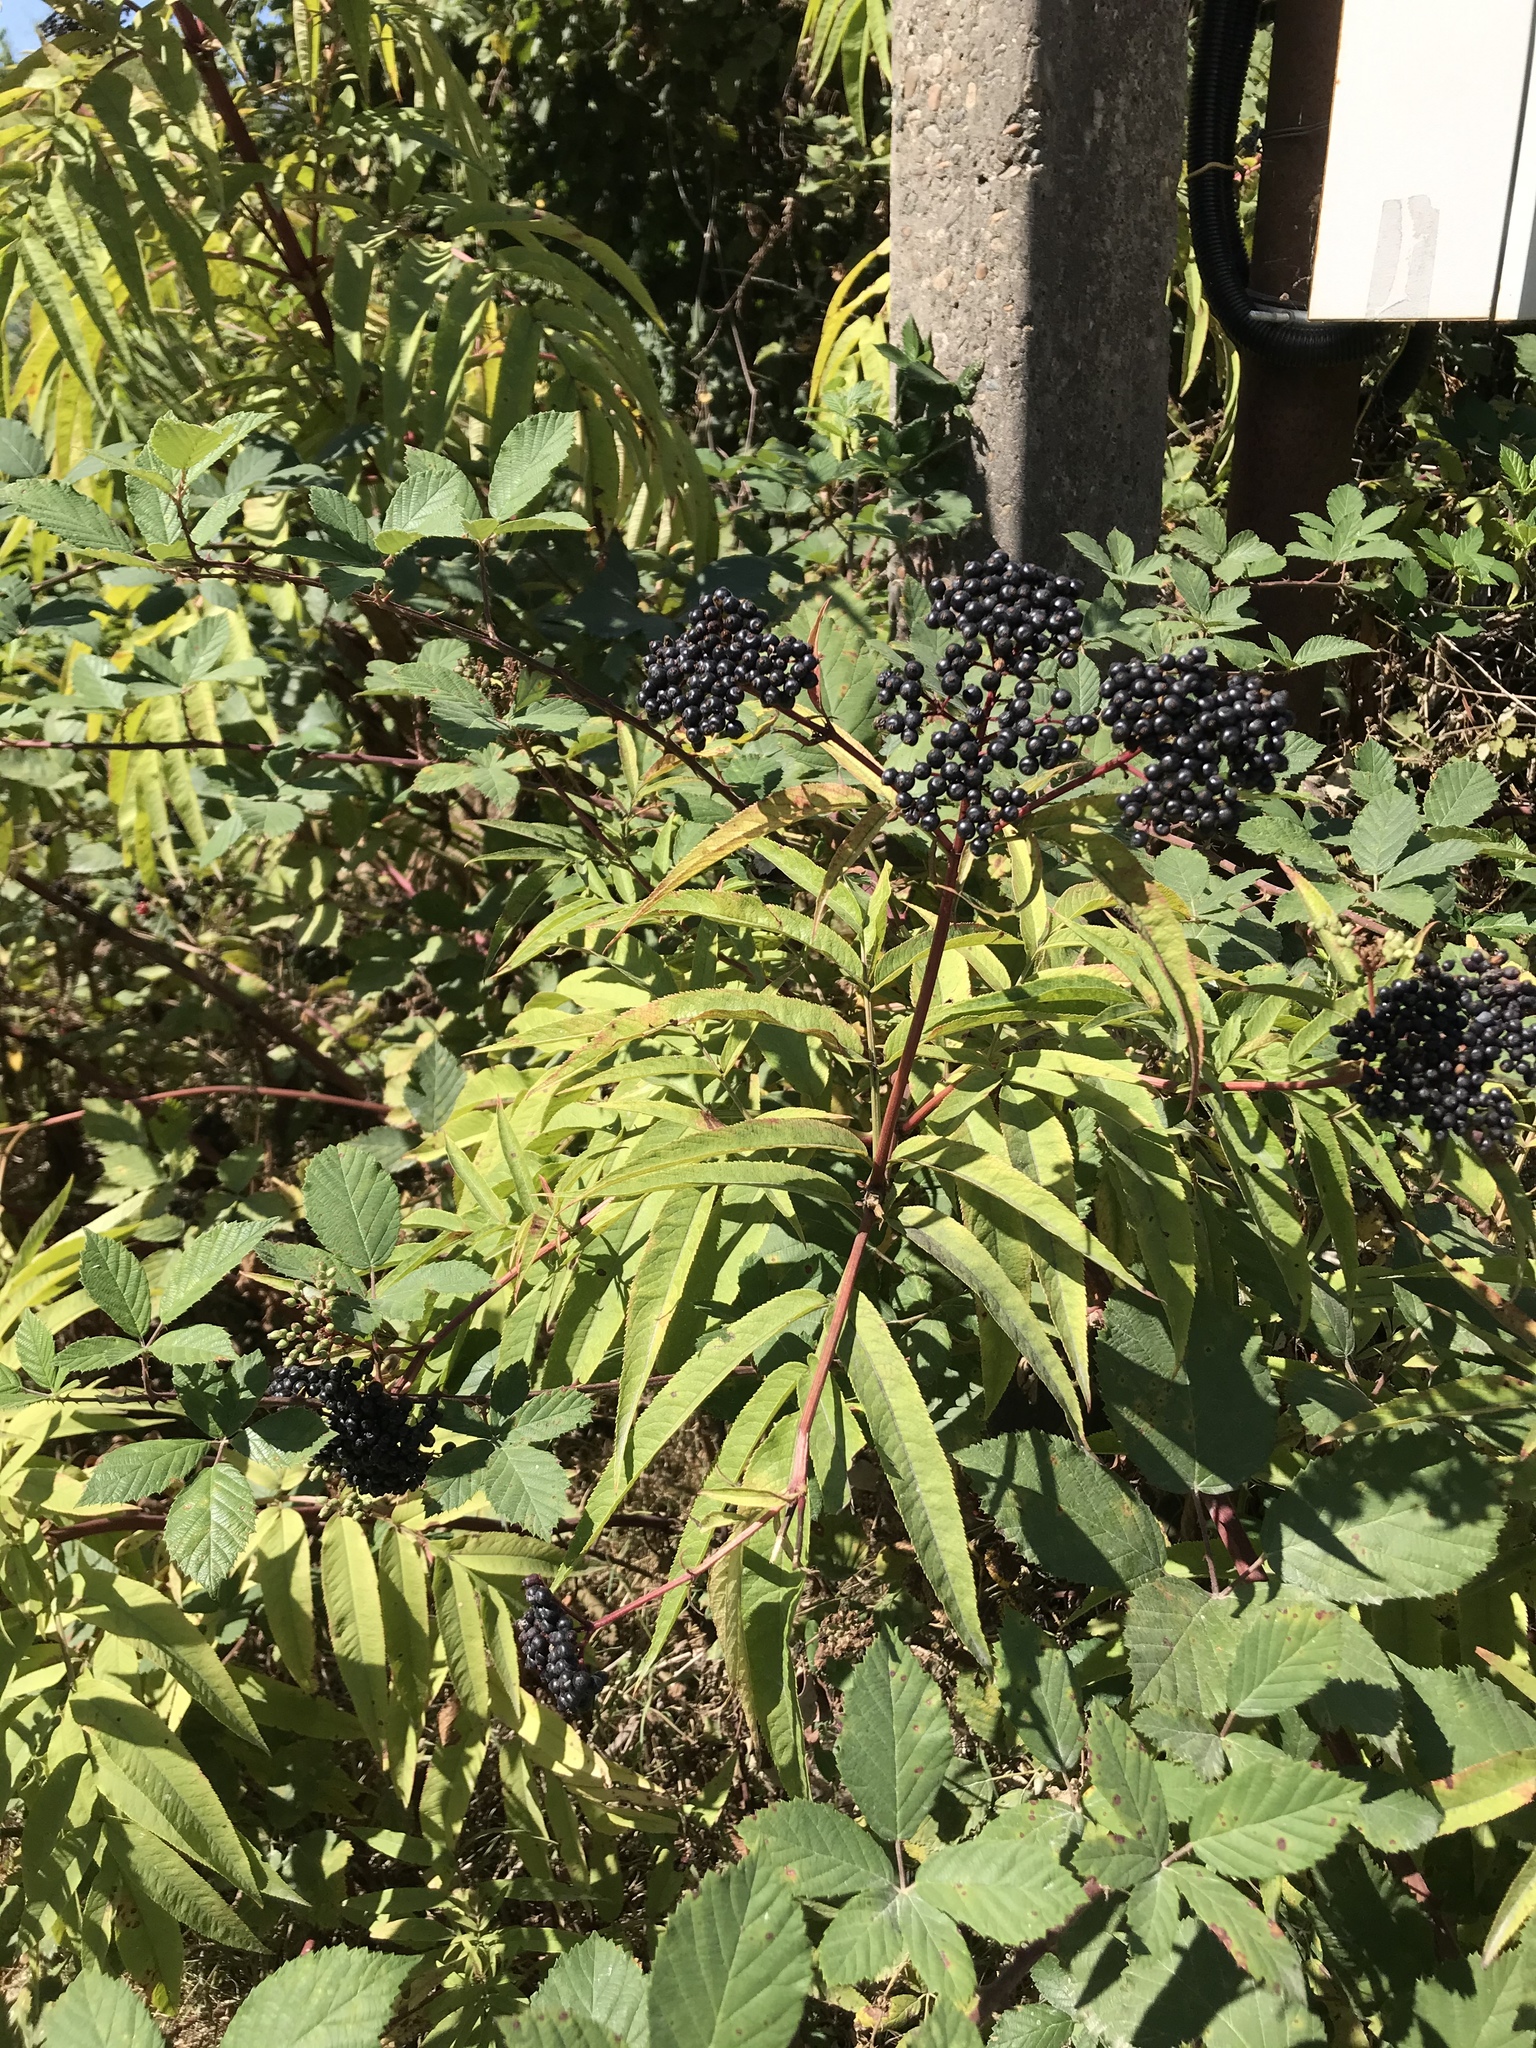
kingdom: Plantae
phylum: Tracheophyta
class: Magnoliopsida
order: Dipsacales
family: Viburnaceae
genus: Sambucus
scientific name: Sambucus ebulus
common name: Dwarf elder
